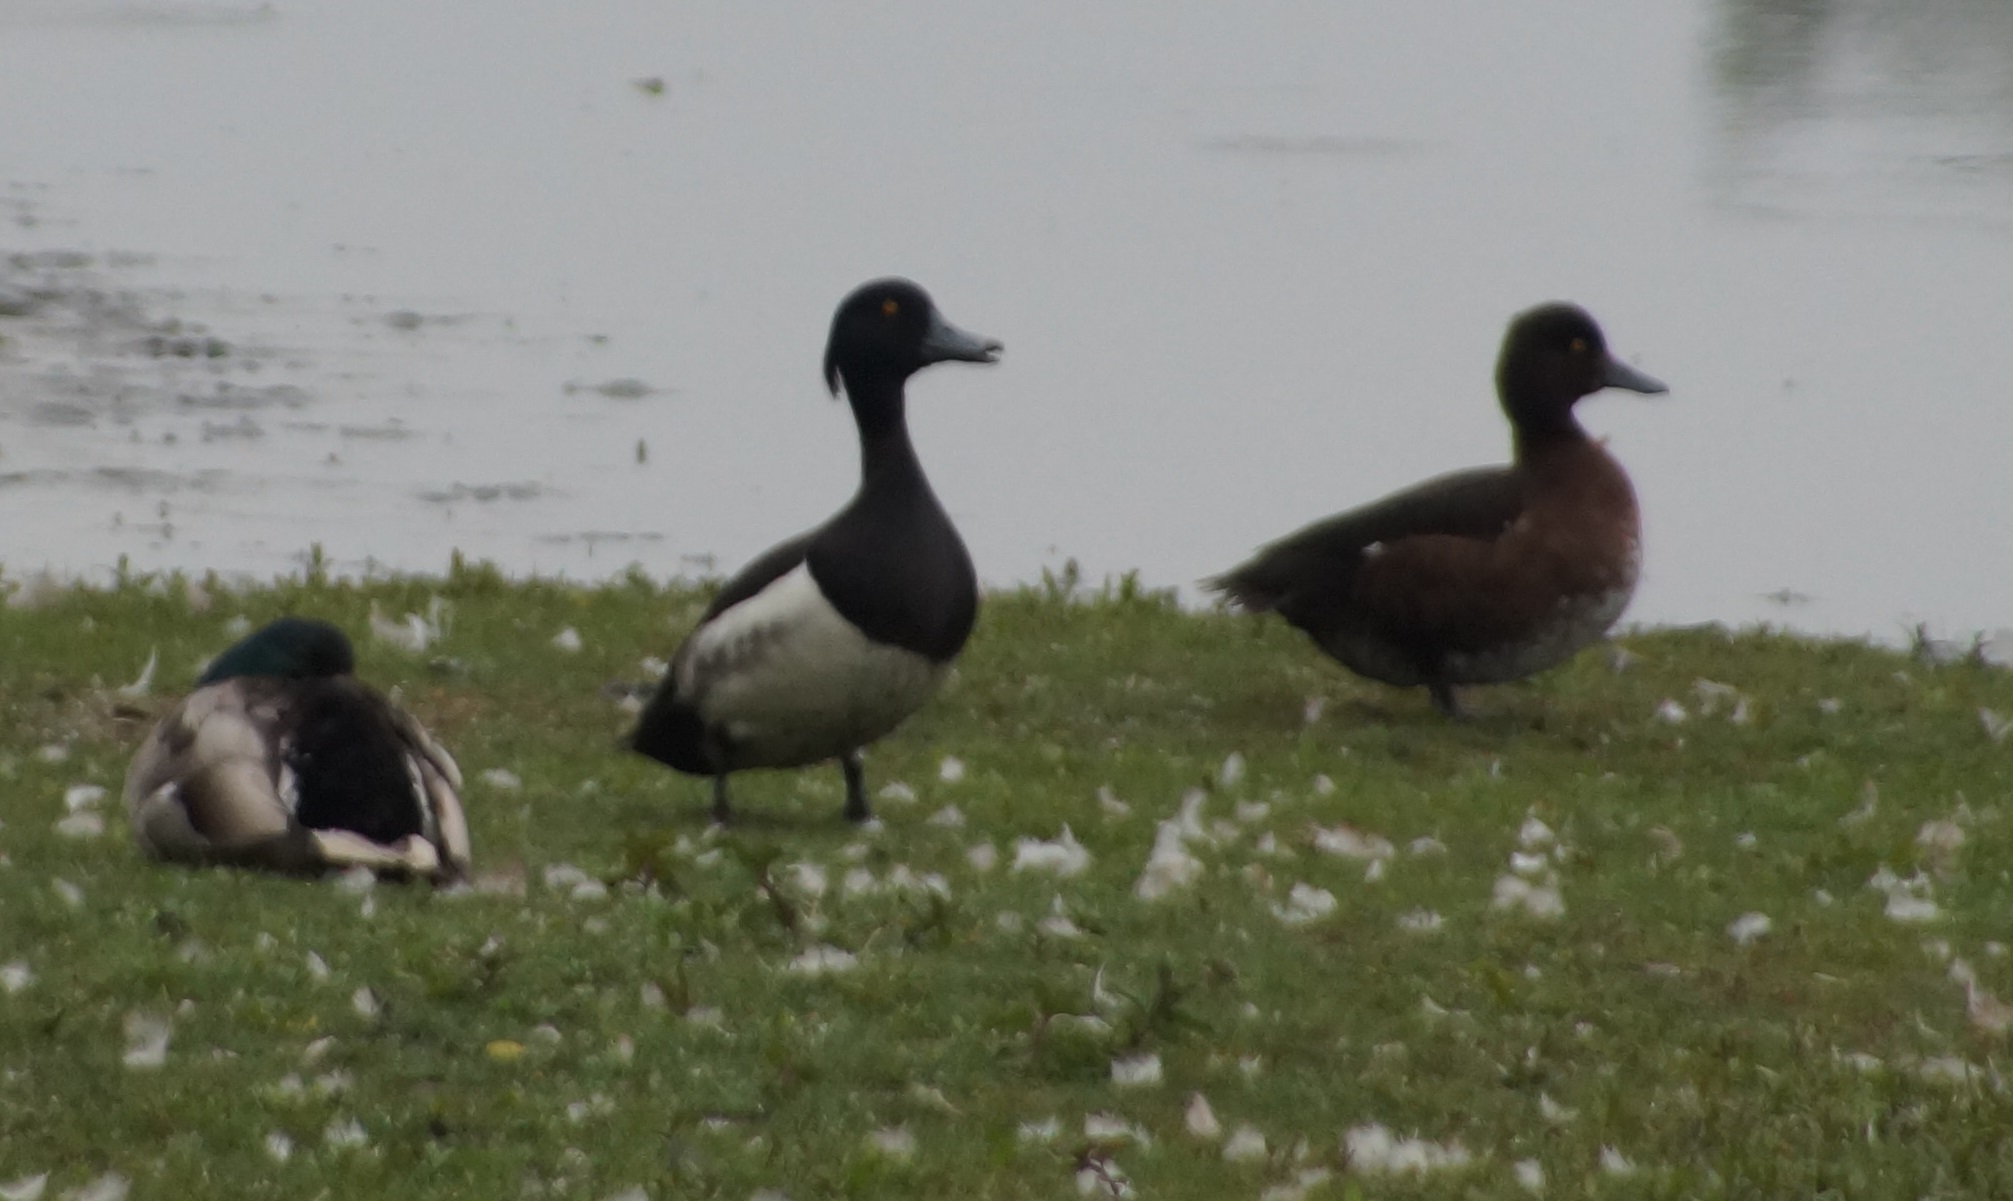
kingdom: Animalia
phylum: Chordata
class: Aves
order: Anseriformes
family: Anatidae
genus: Aythya
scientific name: Aythya fuligula
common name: Tufted duck
